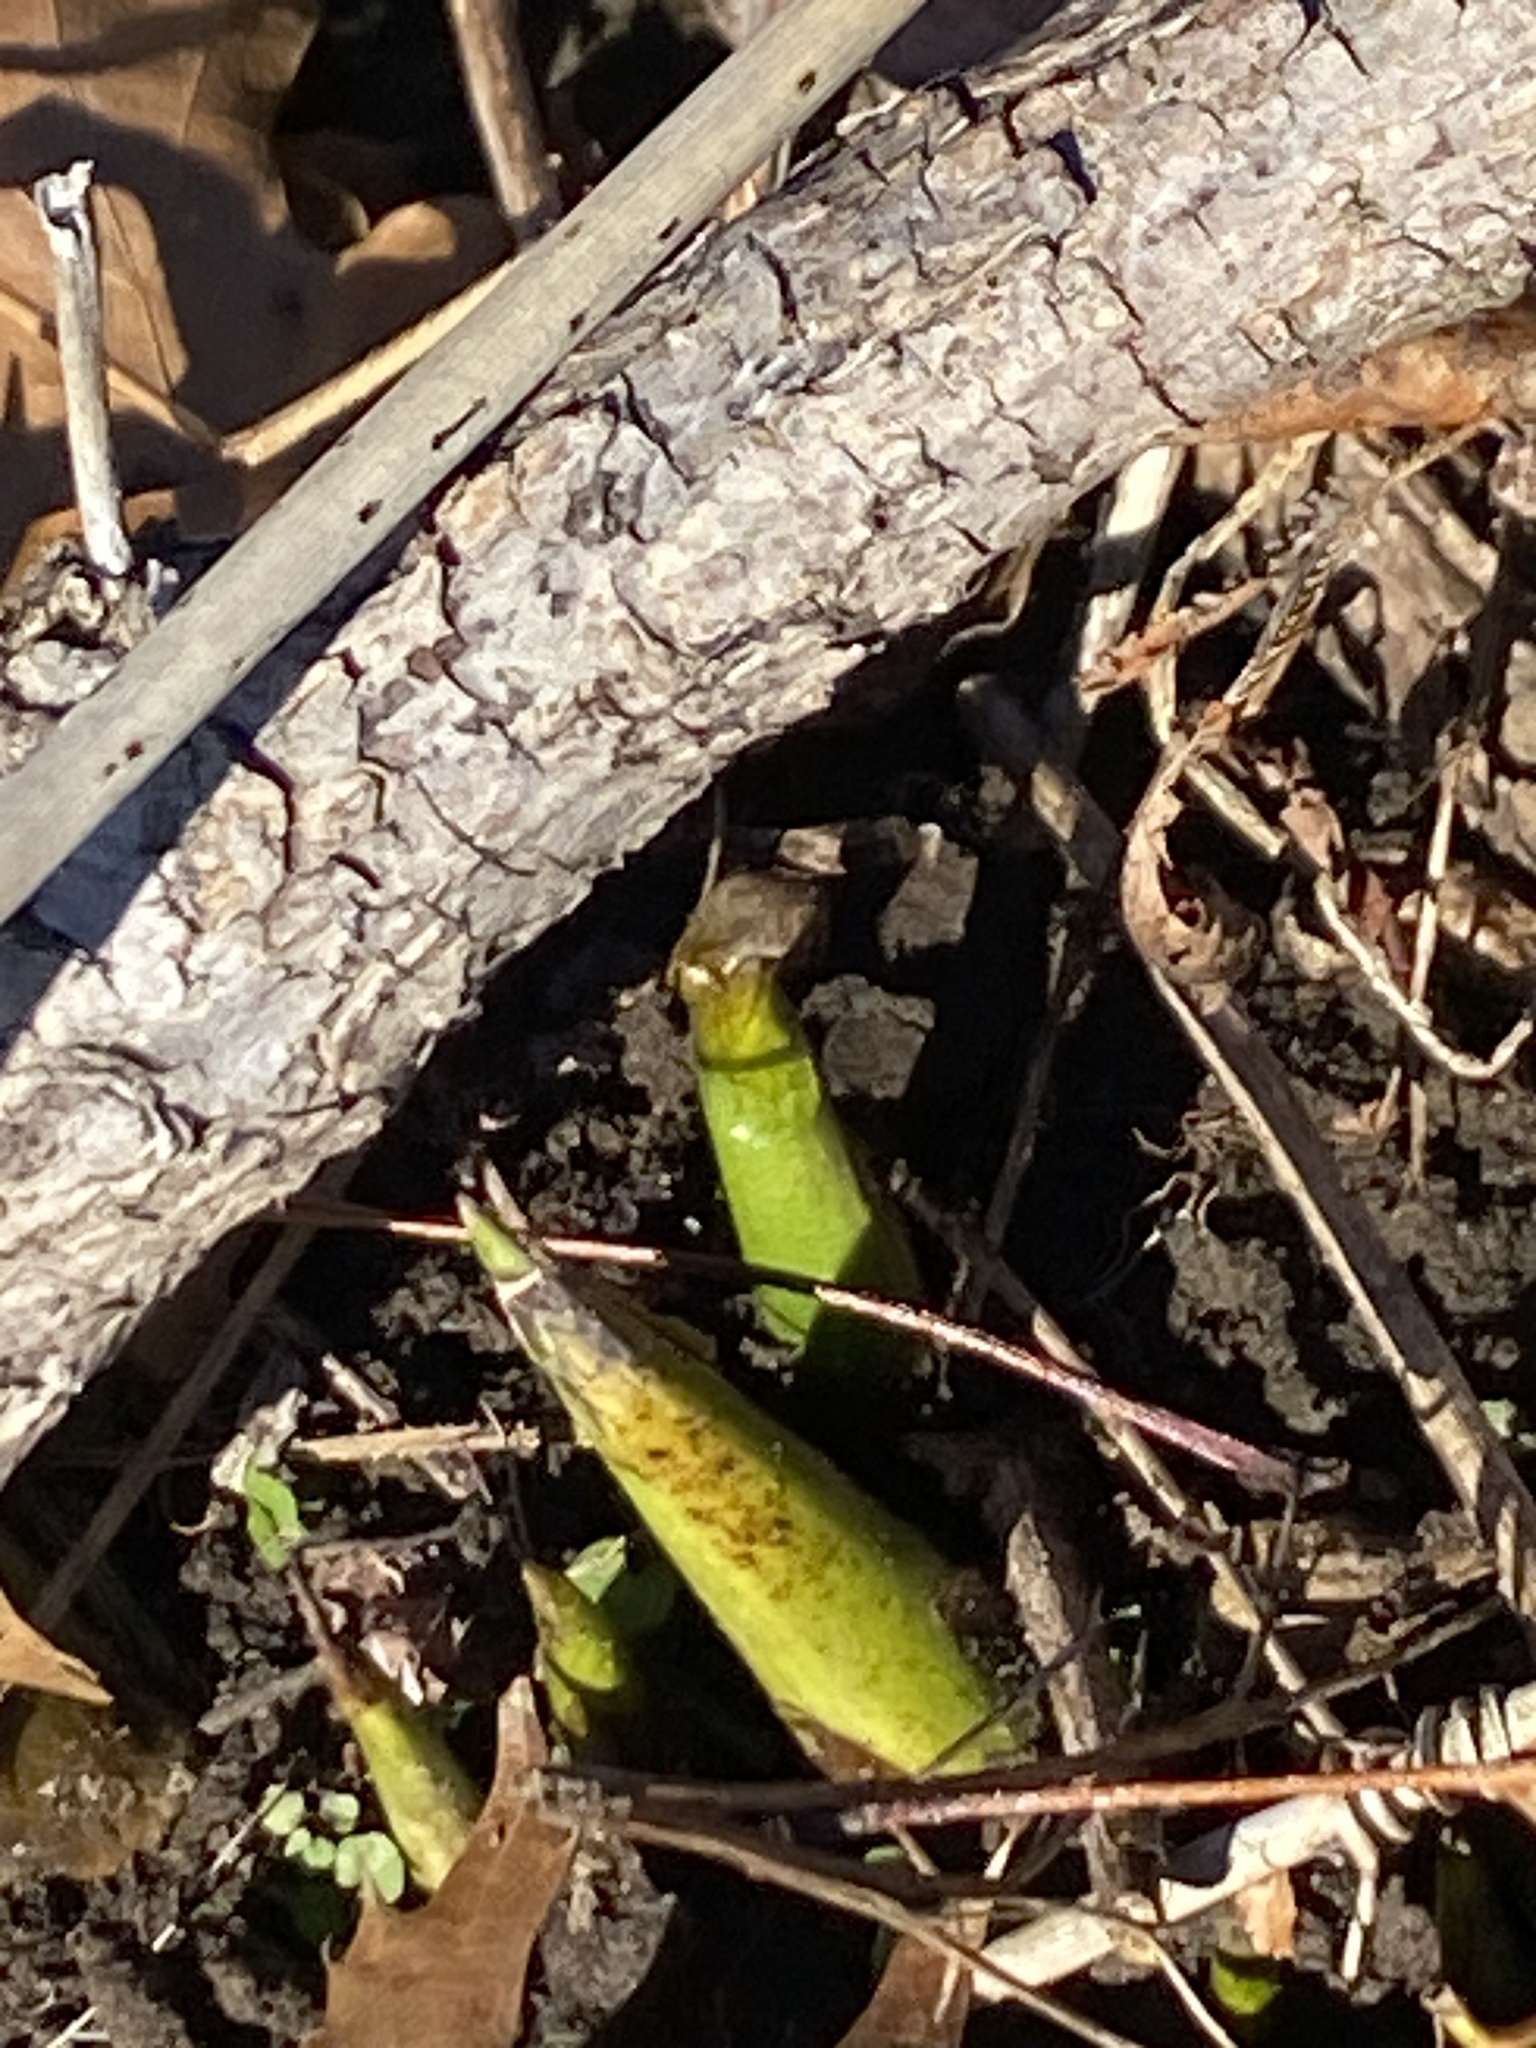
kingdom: Plantae
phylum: Tracheophyta
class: Liliopsida
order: Alismatales
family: Araceae
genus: Symplocarpus
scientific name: Symplocarpus foetidus
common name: Eastern skunk cabbage
